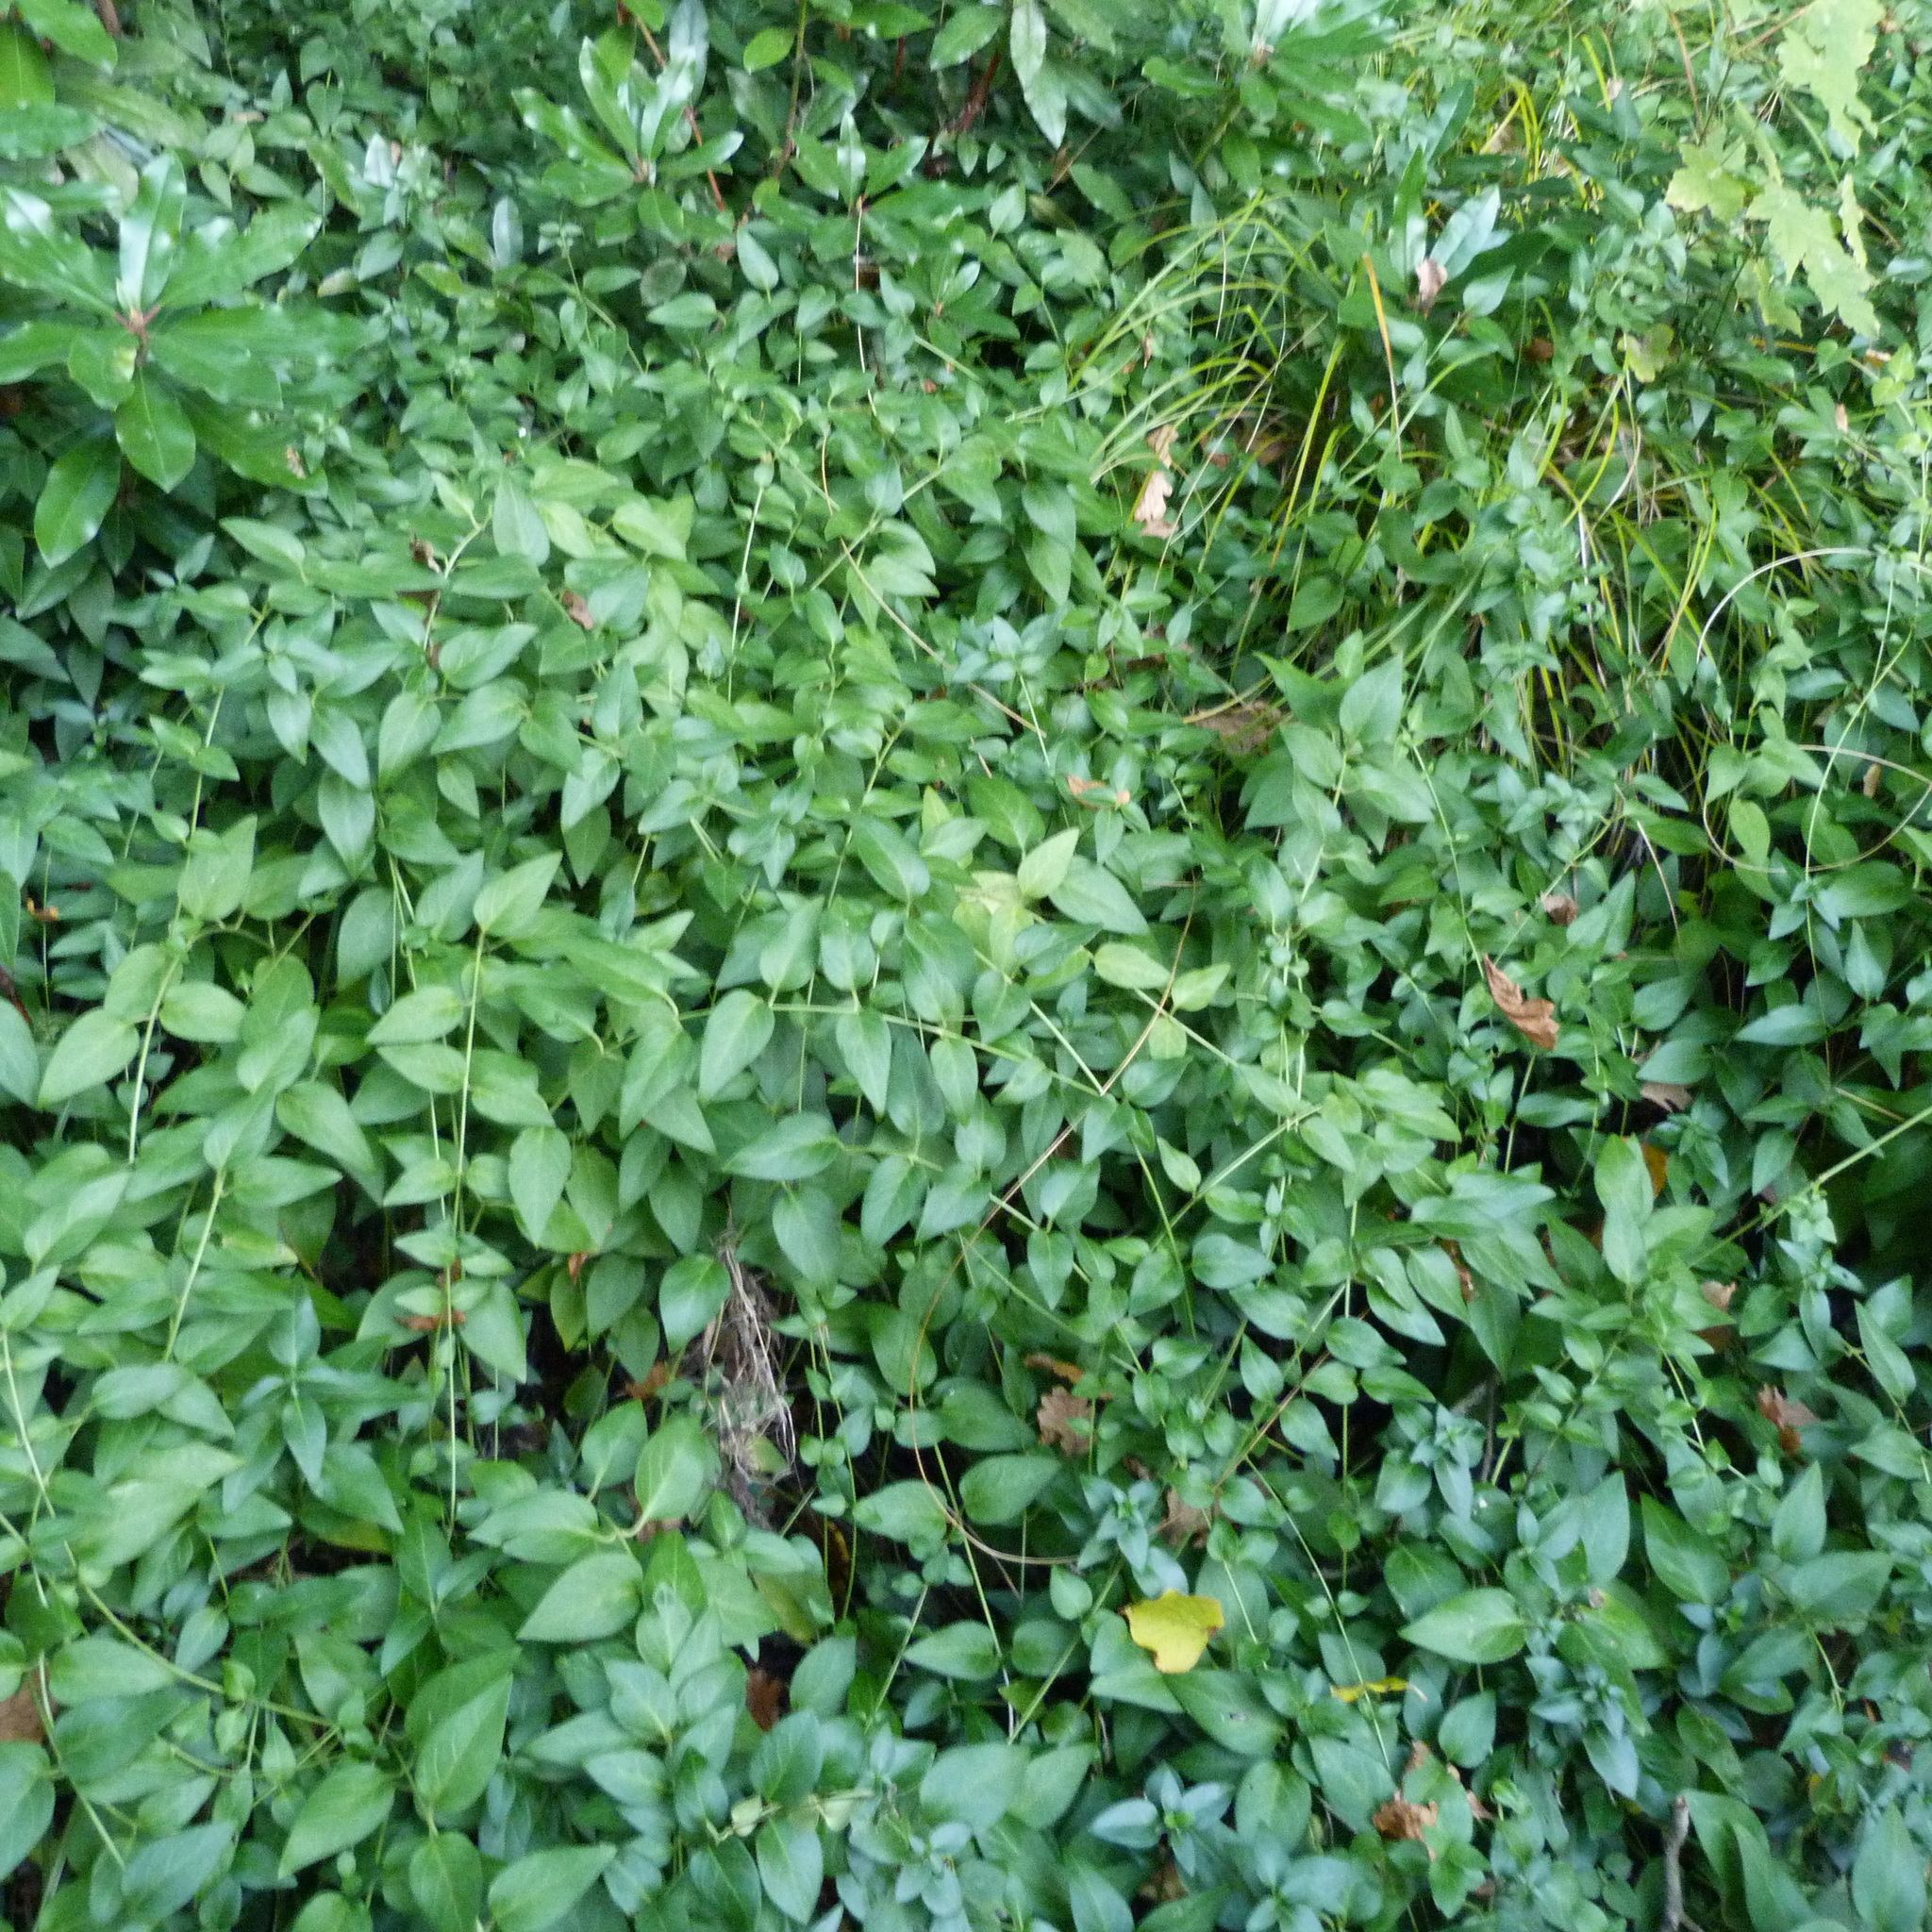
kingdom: Plantae
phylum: Tracheophyta
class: Magnoliopsida
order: Gentianales
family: Apocynaceae
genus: Vinca
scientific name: Vinca major
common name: Greater periwinkle
